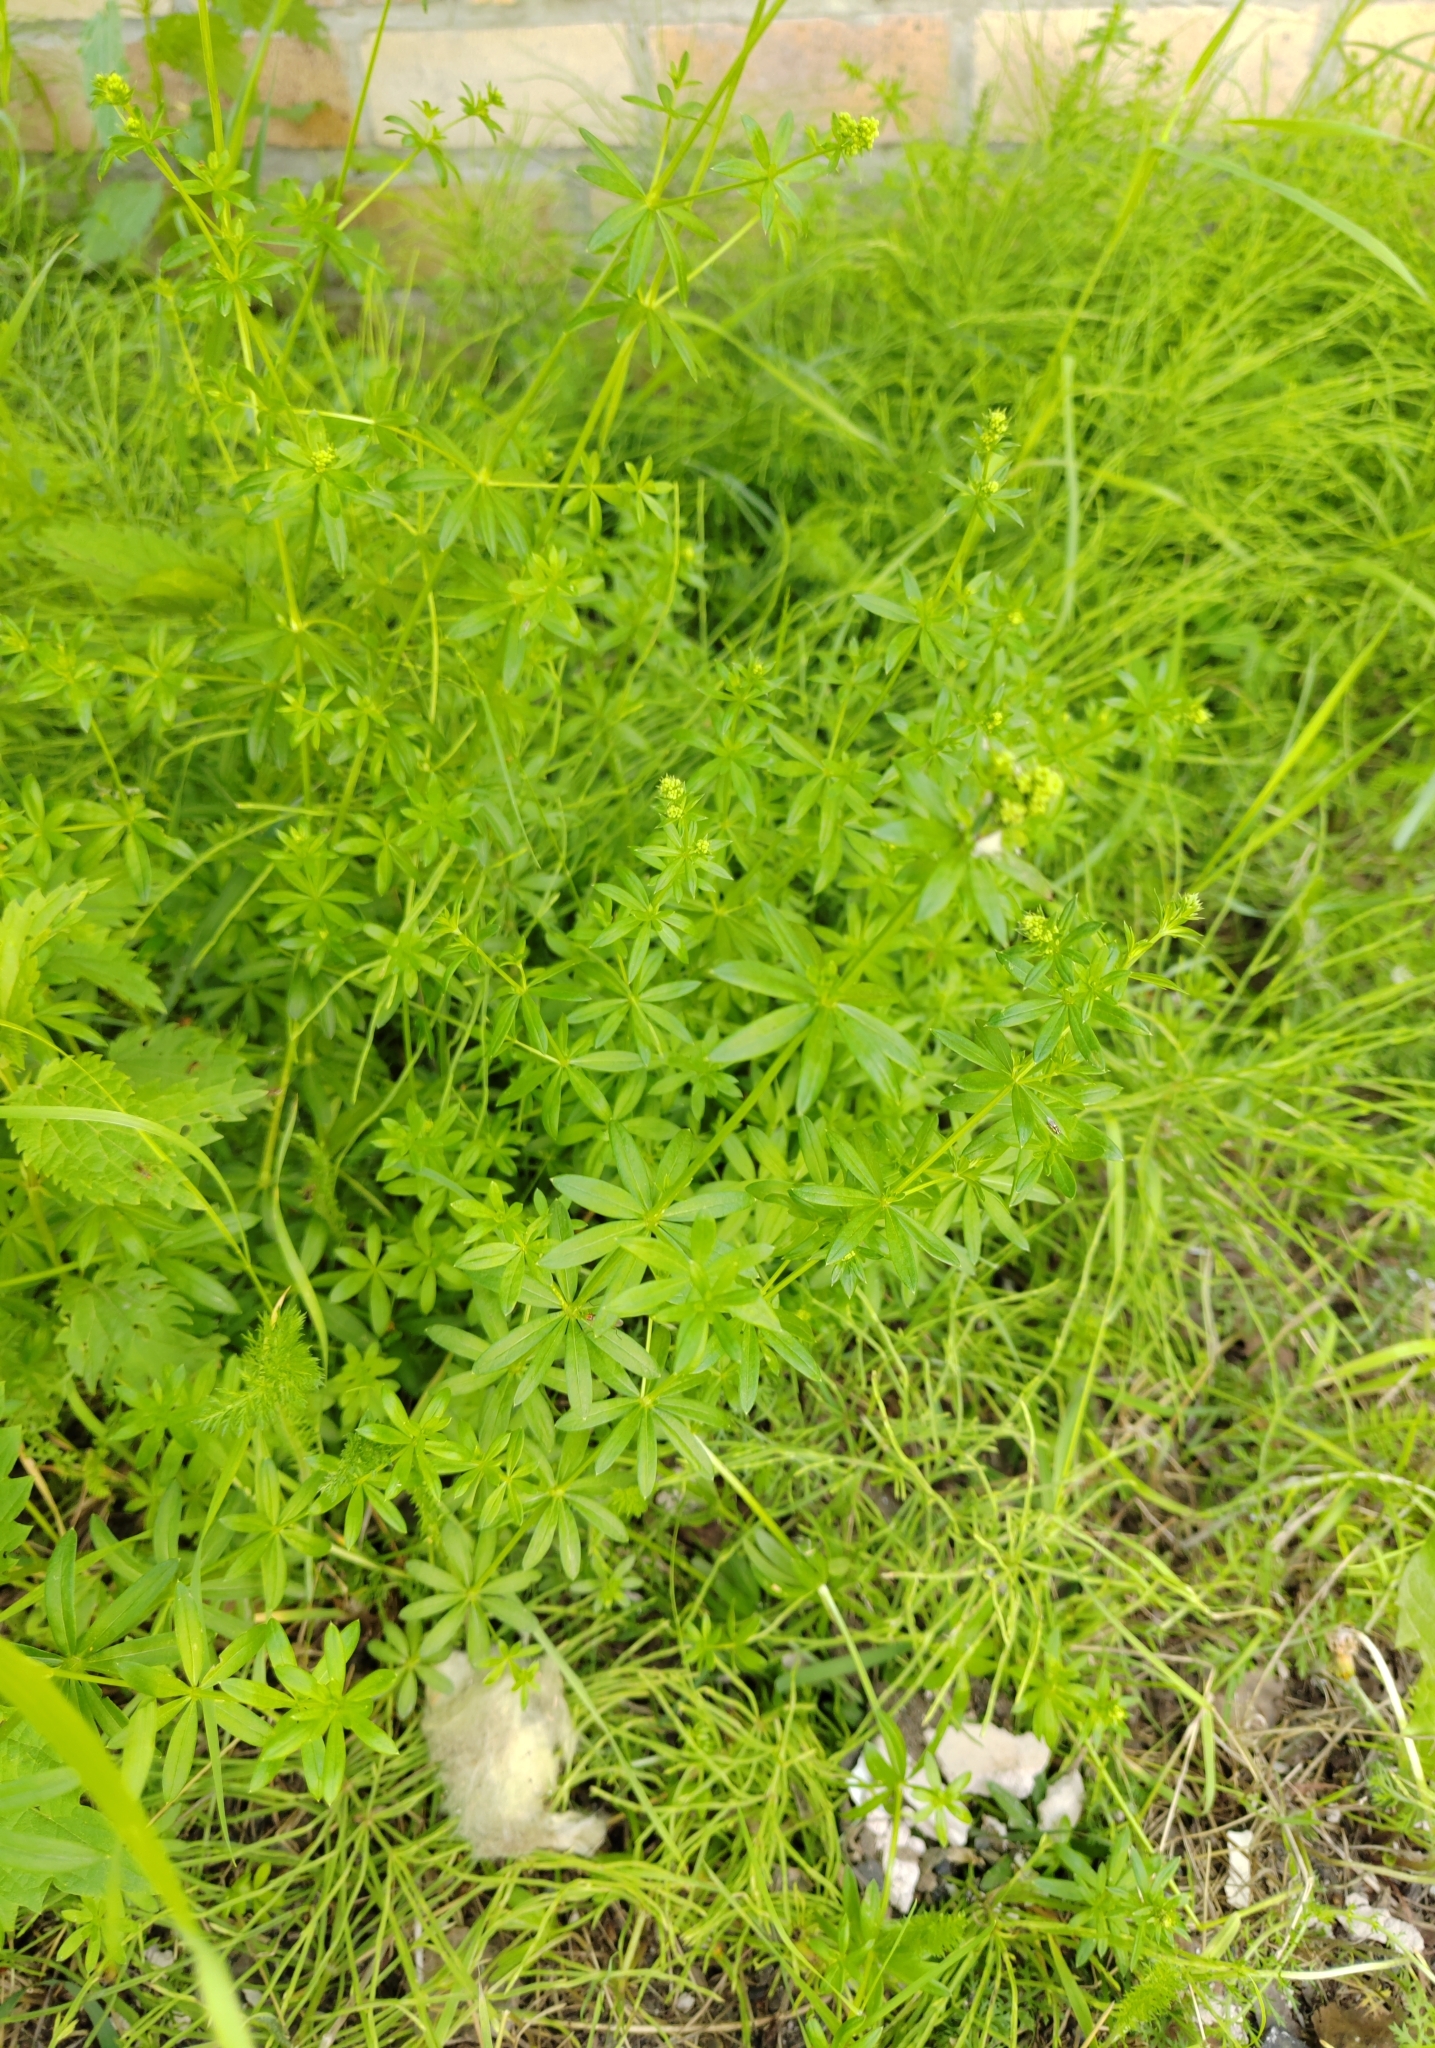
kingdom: Plantae
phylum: Tracheophyta
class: Magnoliopsida
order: Gentianales
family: Rubiaceae
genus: Galium
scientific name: Galium mollugo
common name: Hedge bedstraw
